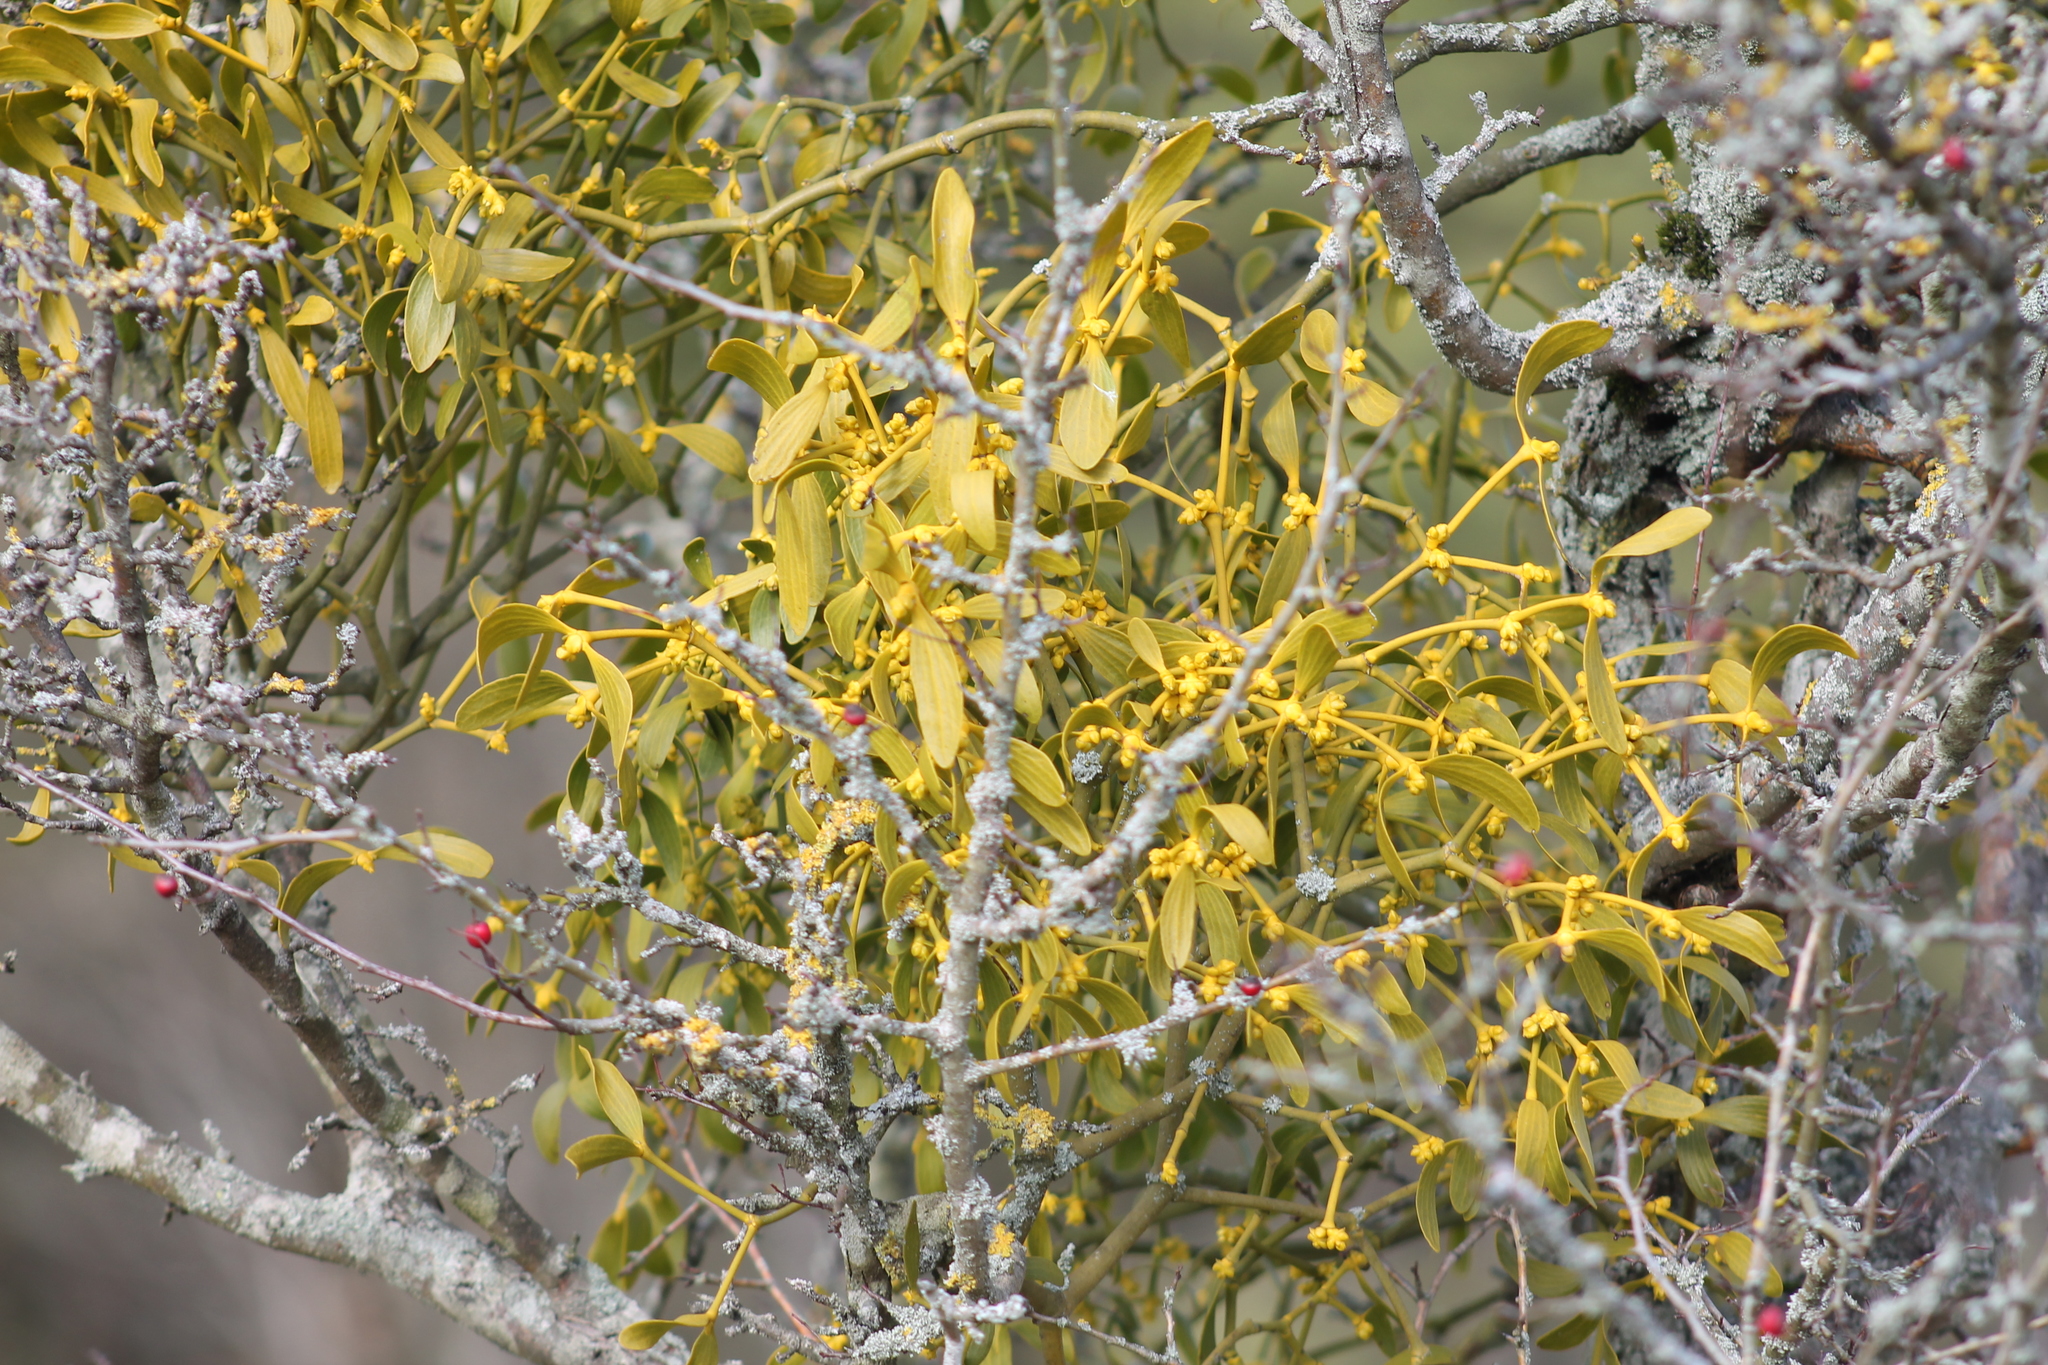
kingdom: Plantae
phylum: Tracheophyta
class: Magnoliopsida
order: Santalales
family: Viscaceae
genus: Viscum
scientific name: Viscum album
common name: Mistletoe
